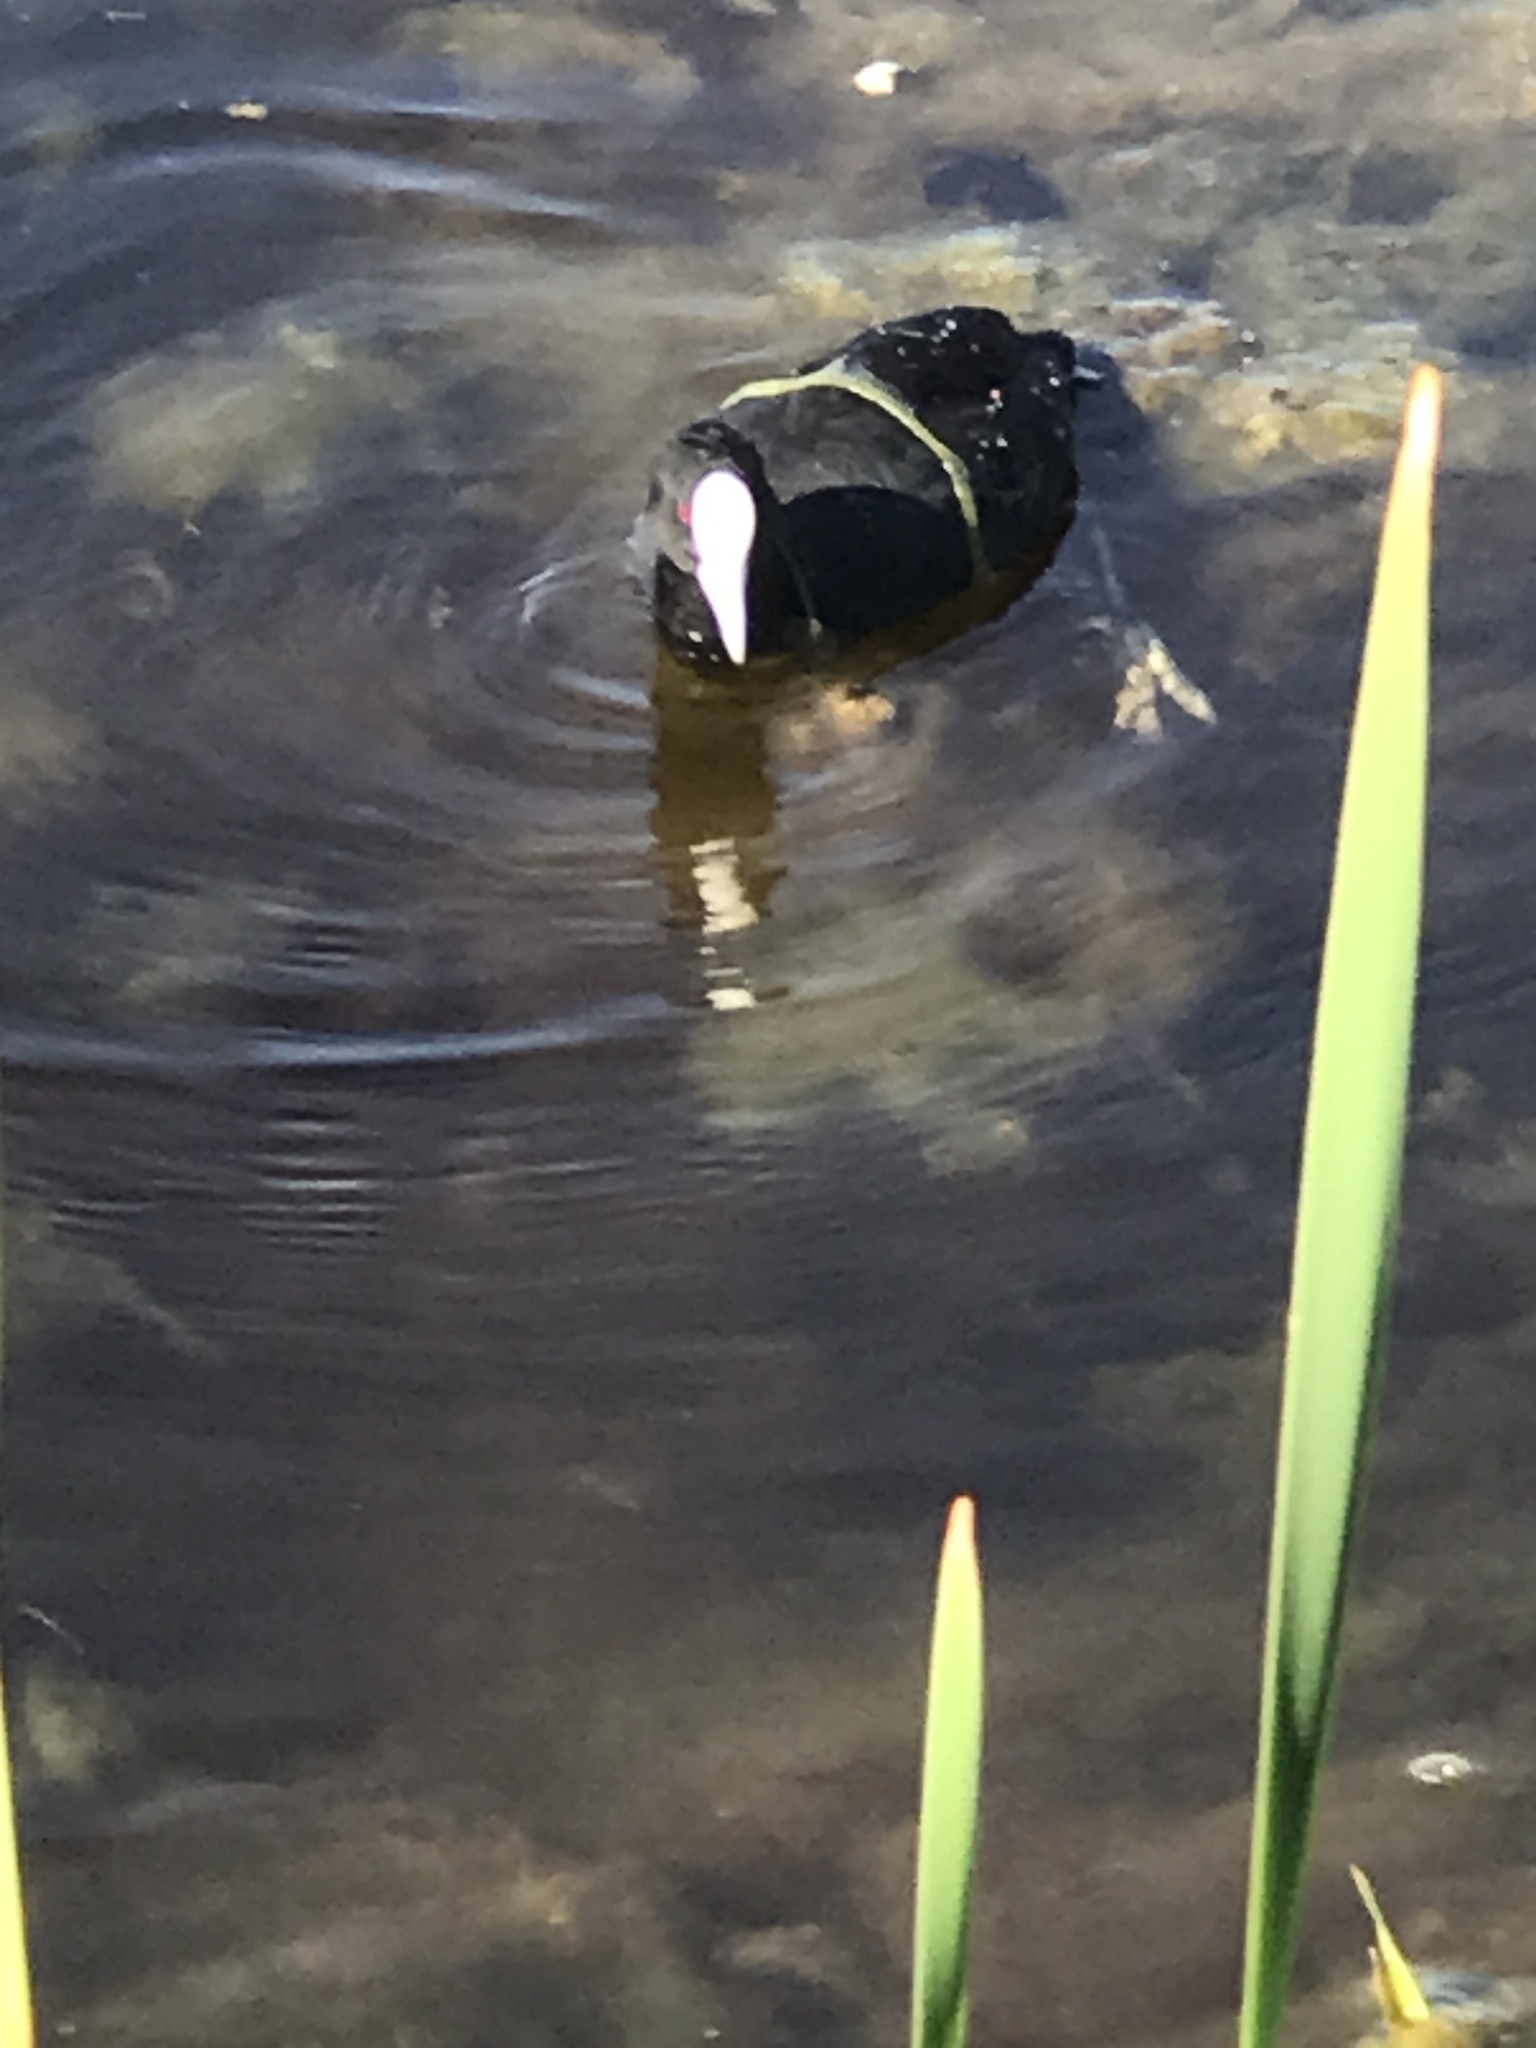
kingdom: Animalia
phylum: Chordata
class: Aves
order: Gruiformes
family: Rallidae
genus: Fulica
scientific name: Fulica atra
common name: Eurasian coot
